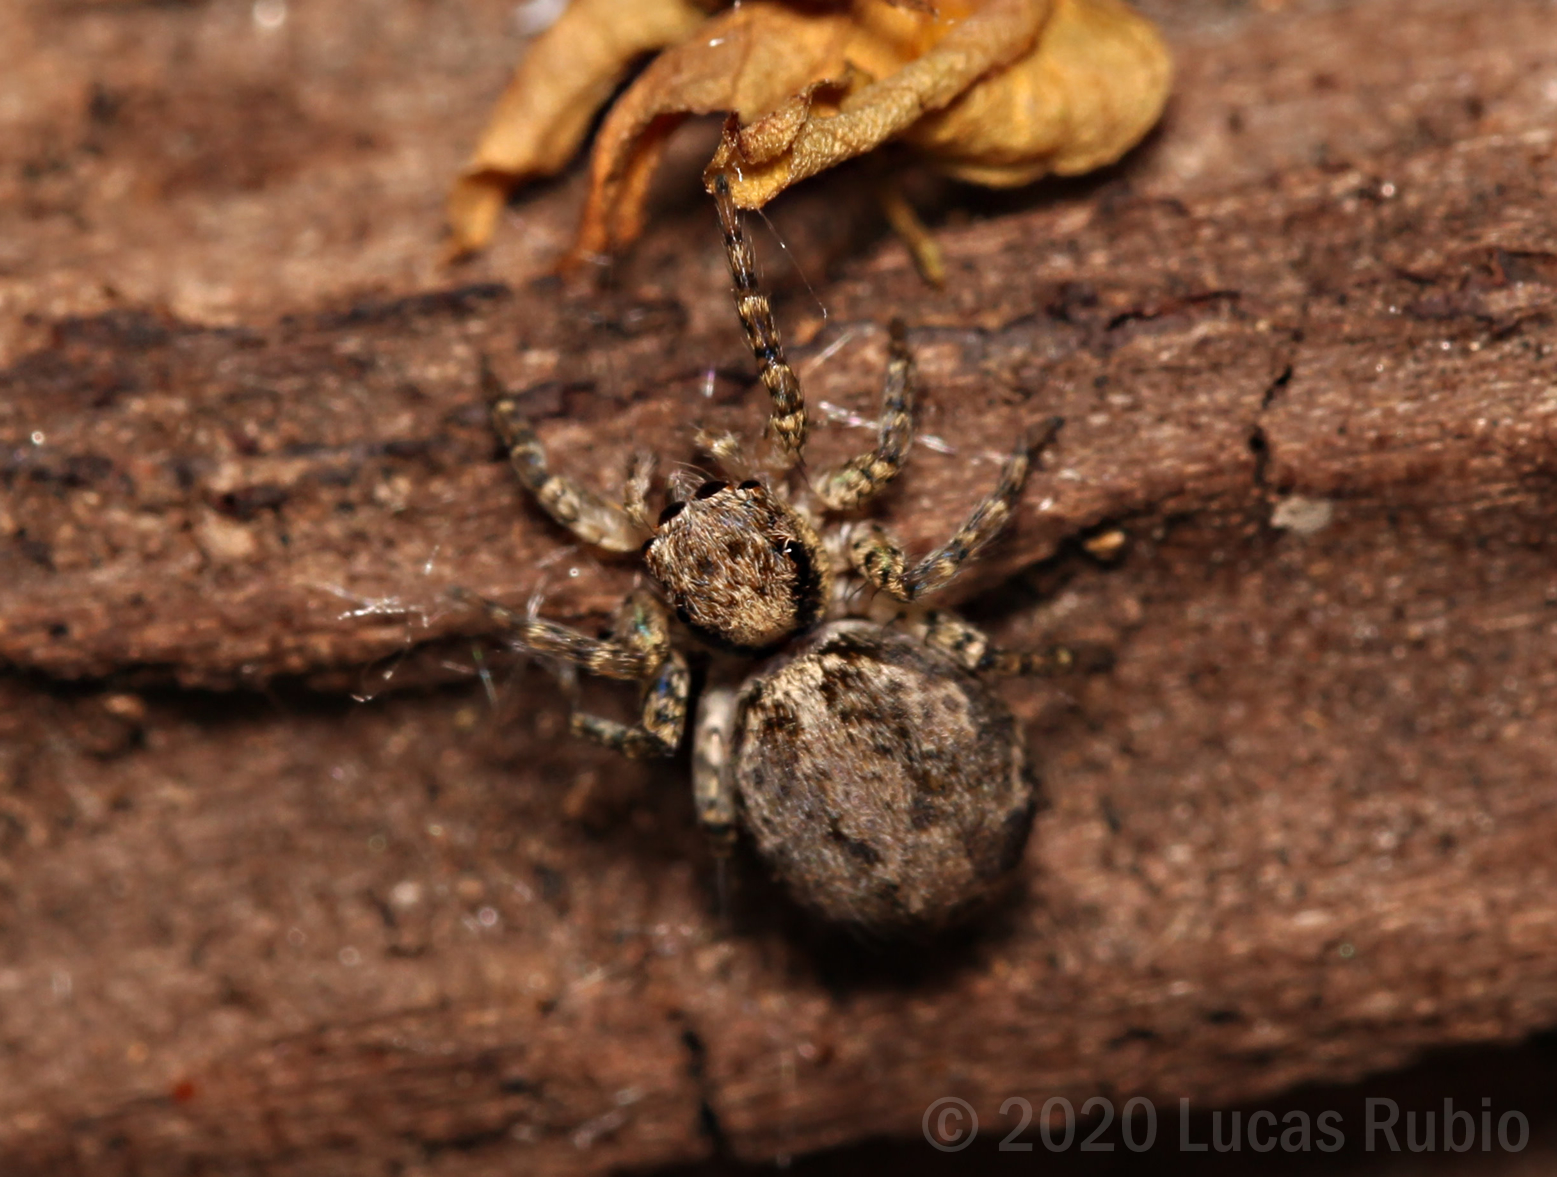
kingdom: Animalia
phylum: Arthropoda
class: Arachnida
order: Araneae
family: Salticidae
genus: Saitis
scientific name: Saitis variegatus
